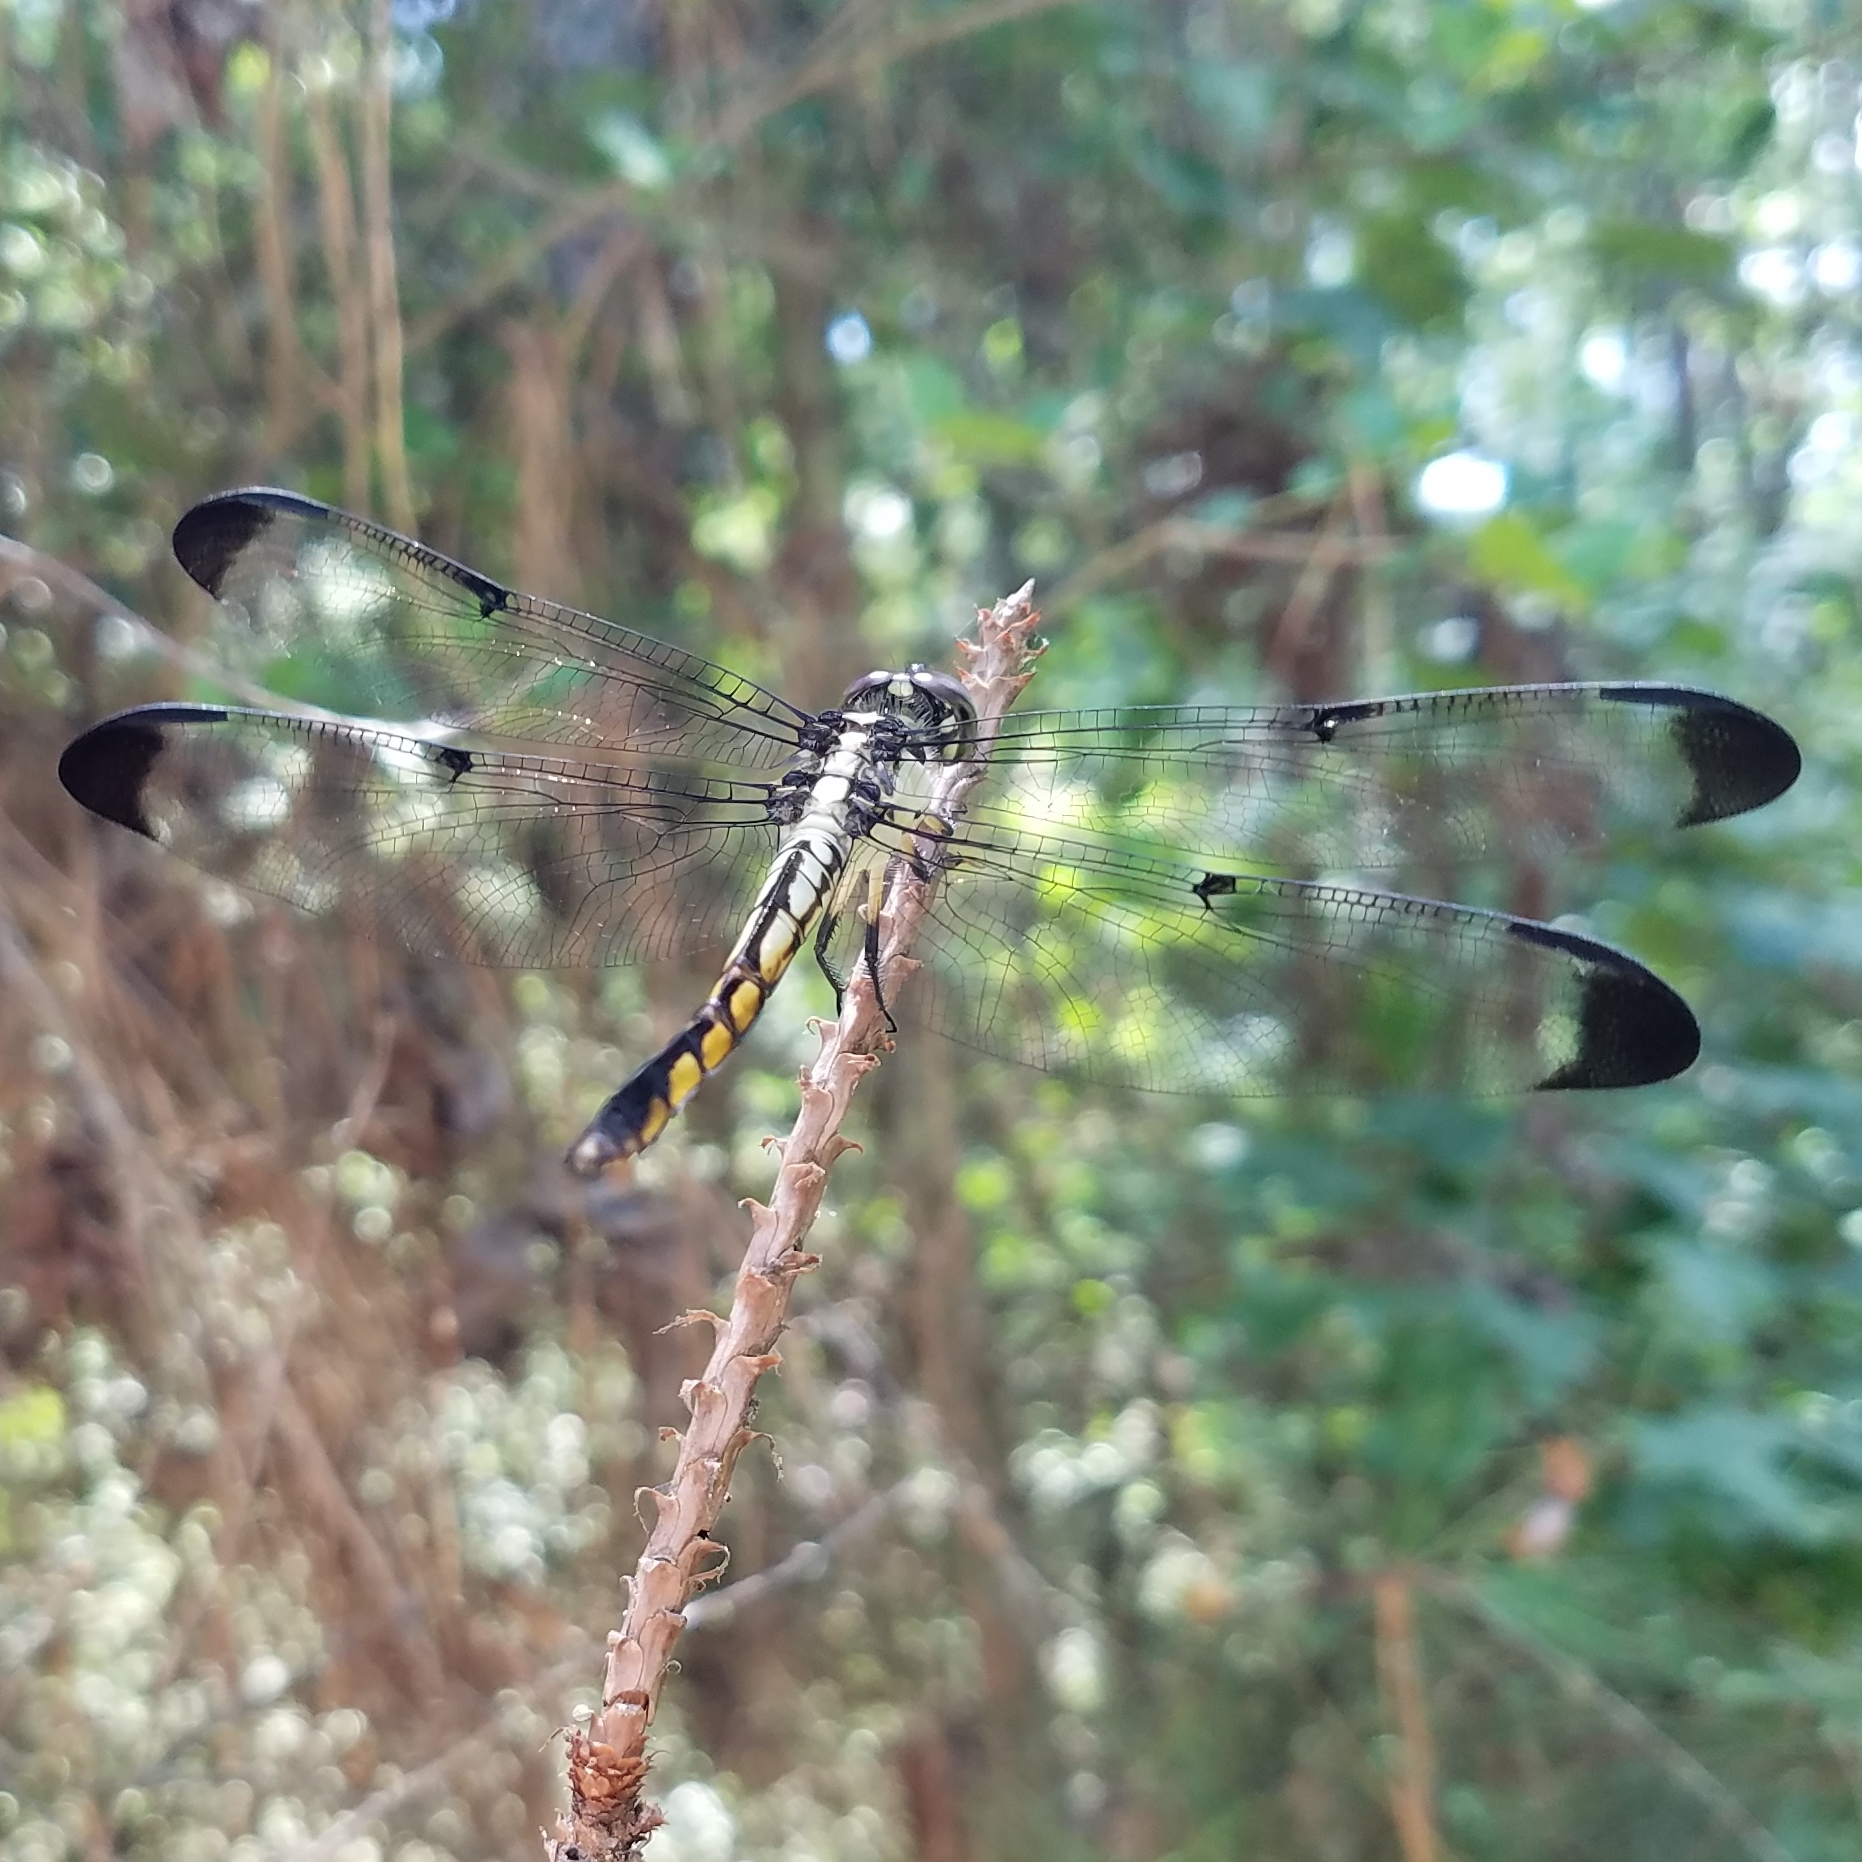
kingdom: Animalia
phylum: Arthropoda
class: Insecta
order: Odonata
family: Libellulidae
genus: Libellula
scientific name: Libellula vibrans
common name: Great blue skimmer
